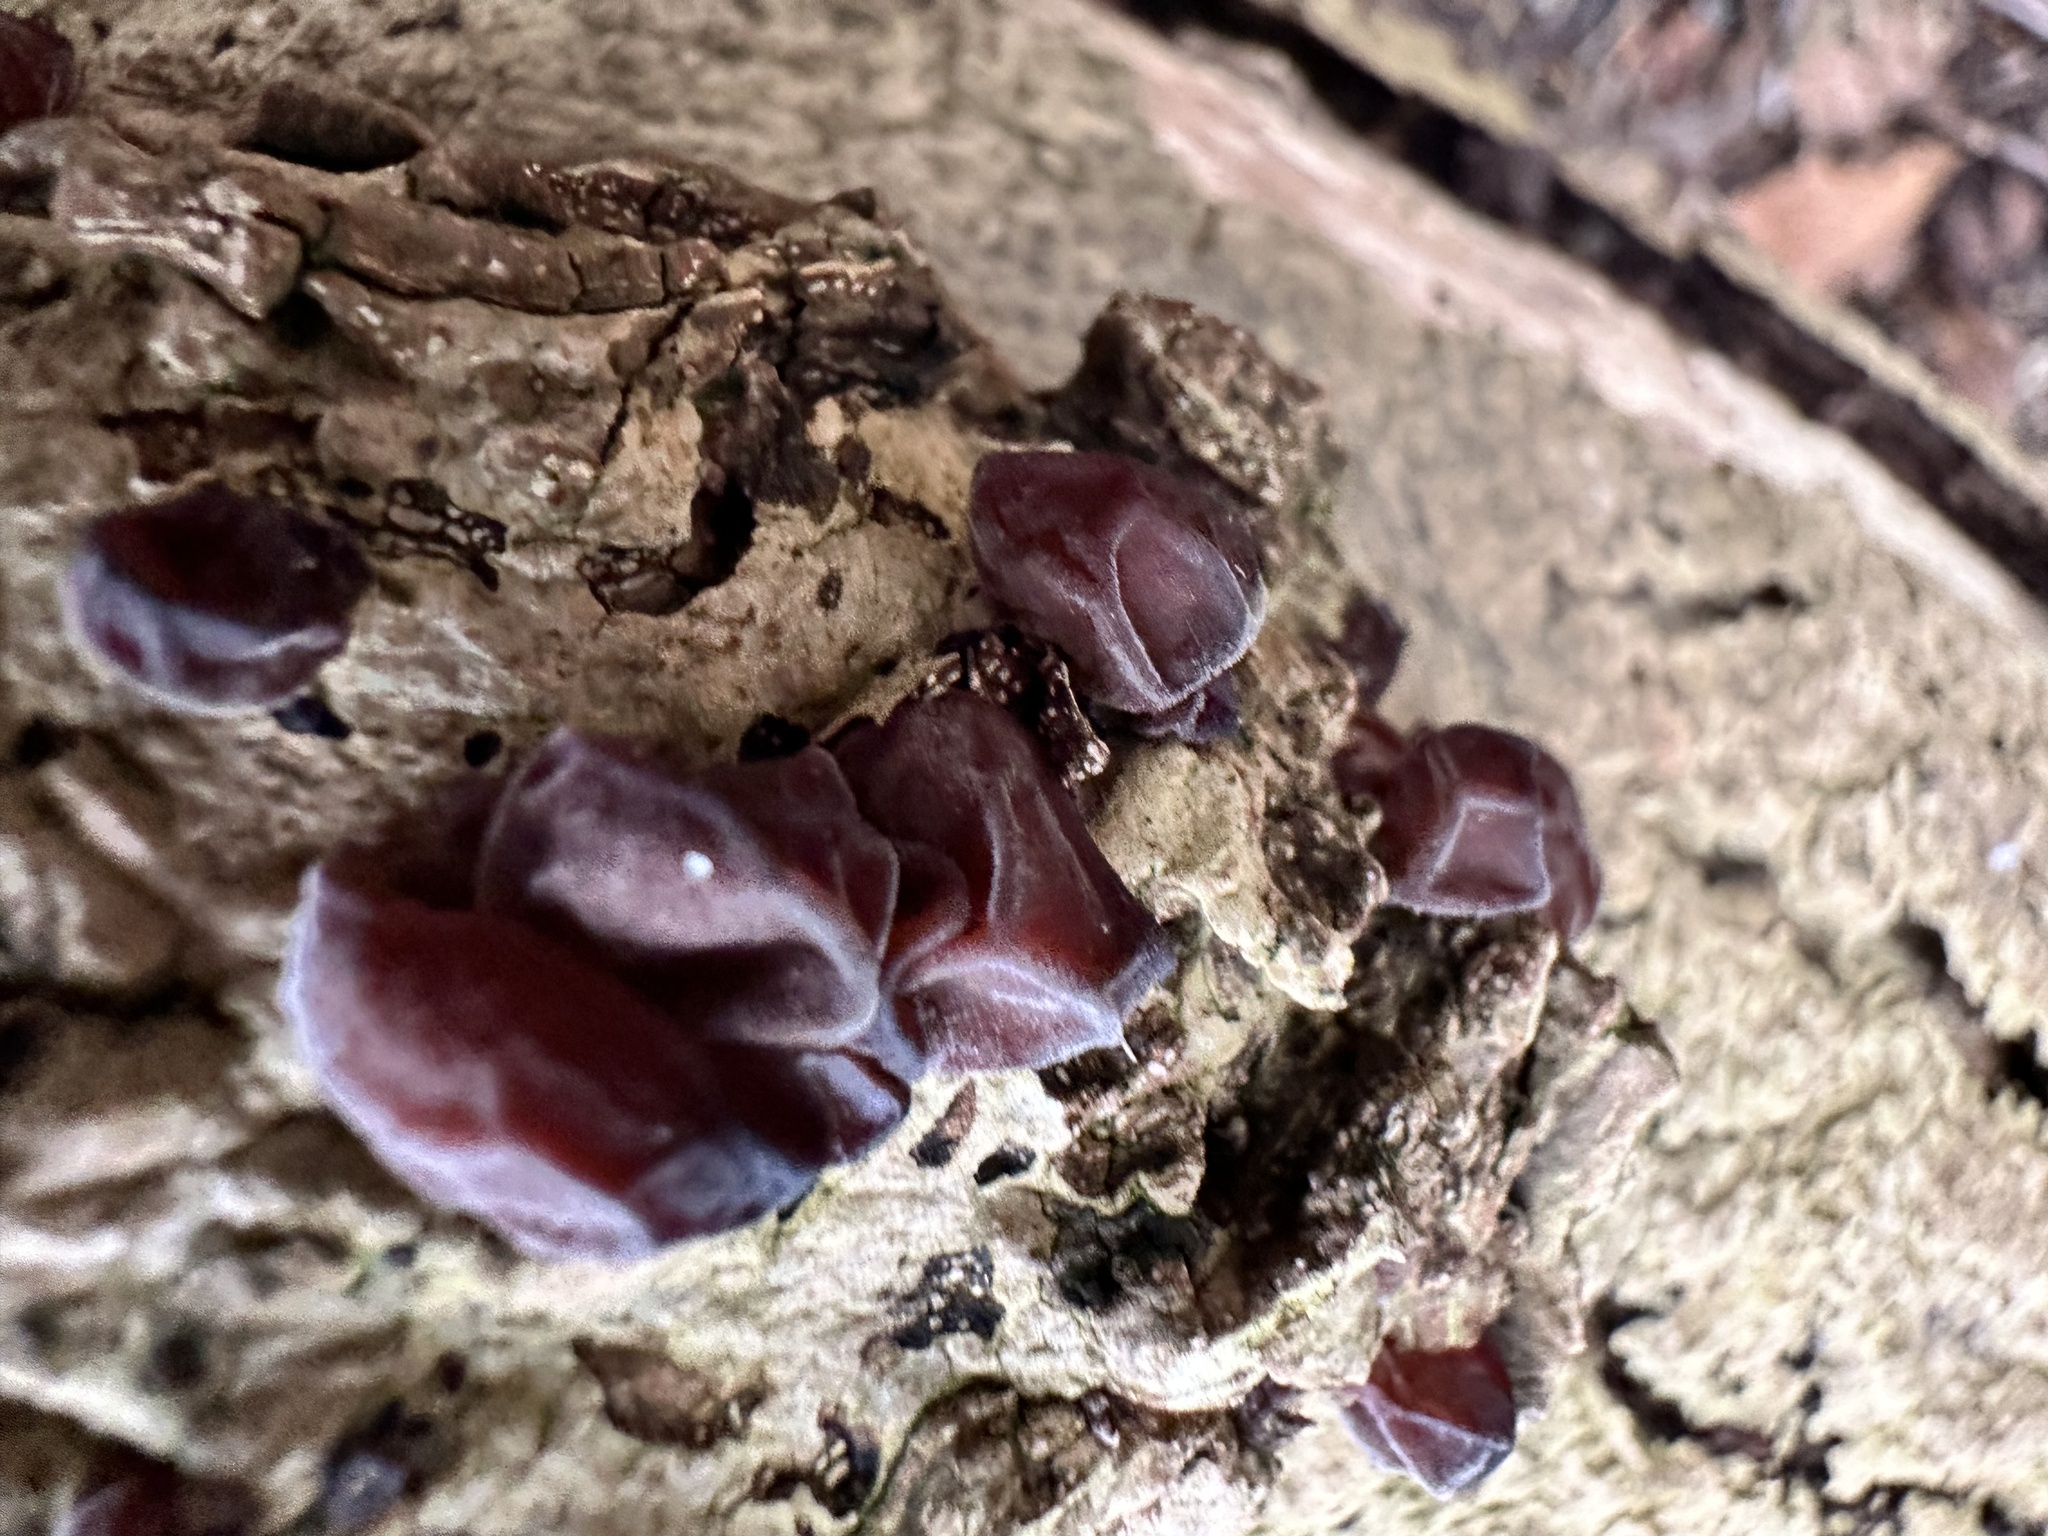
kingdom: Fungi
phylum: Basidiomycota
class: Agaricomycetes
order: Auriculariales
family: Auriculariaceae
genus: Auricularia
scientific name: Auricularia auricula-judae
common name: Jelly ear
